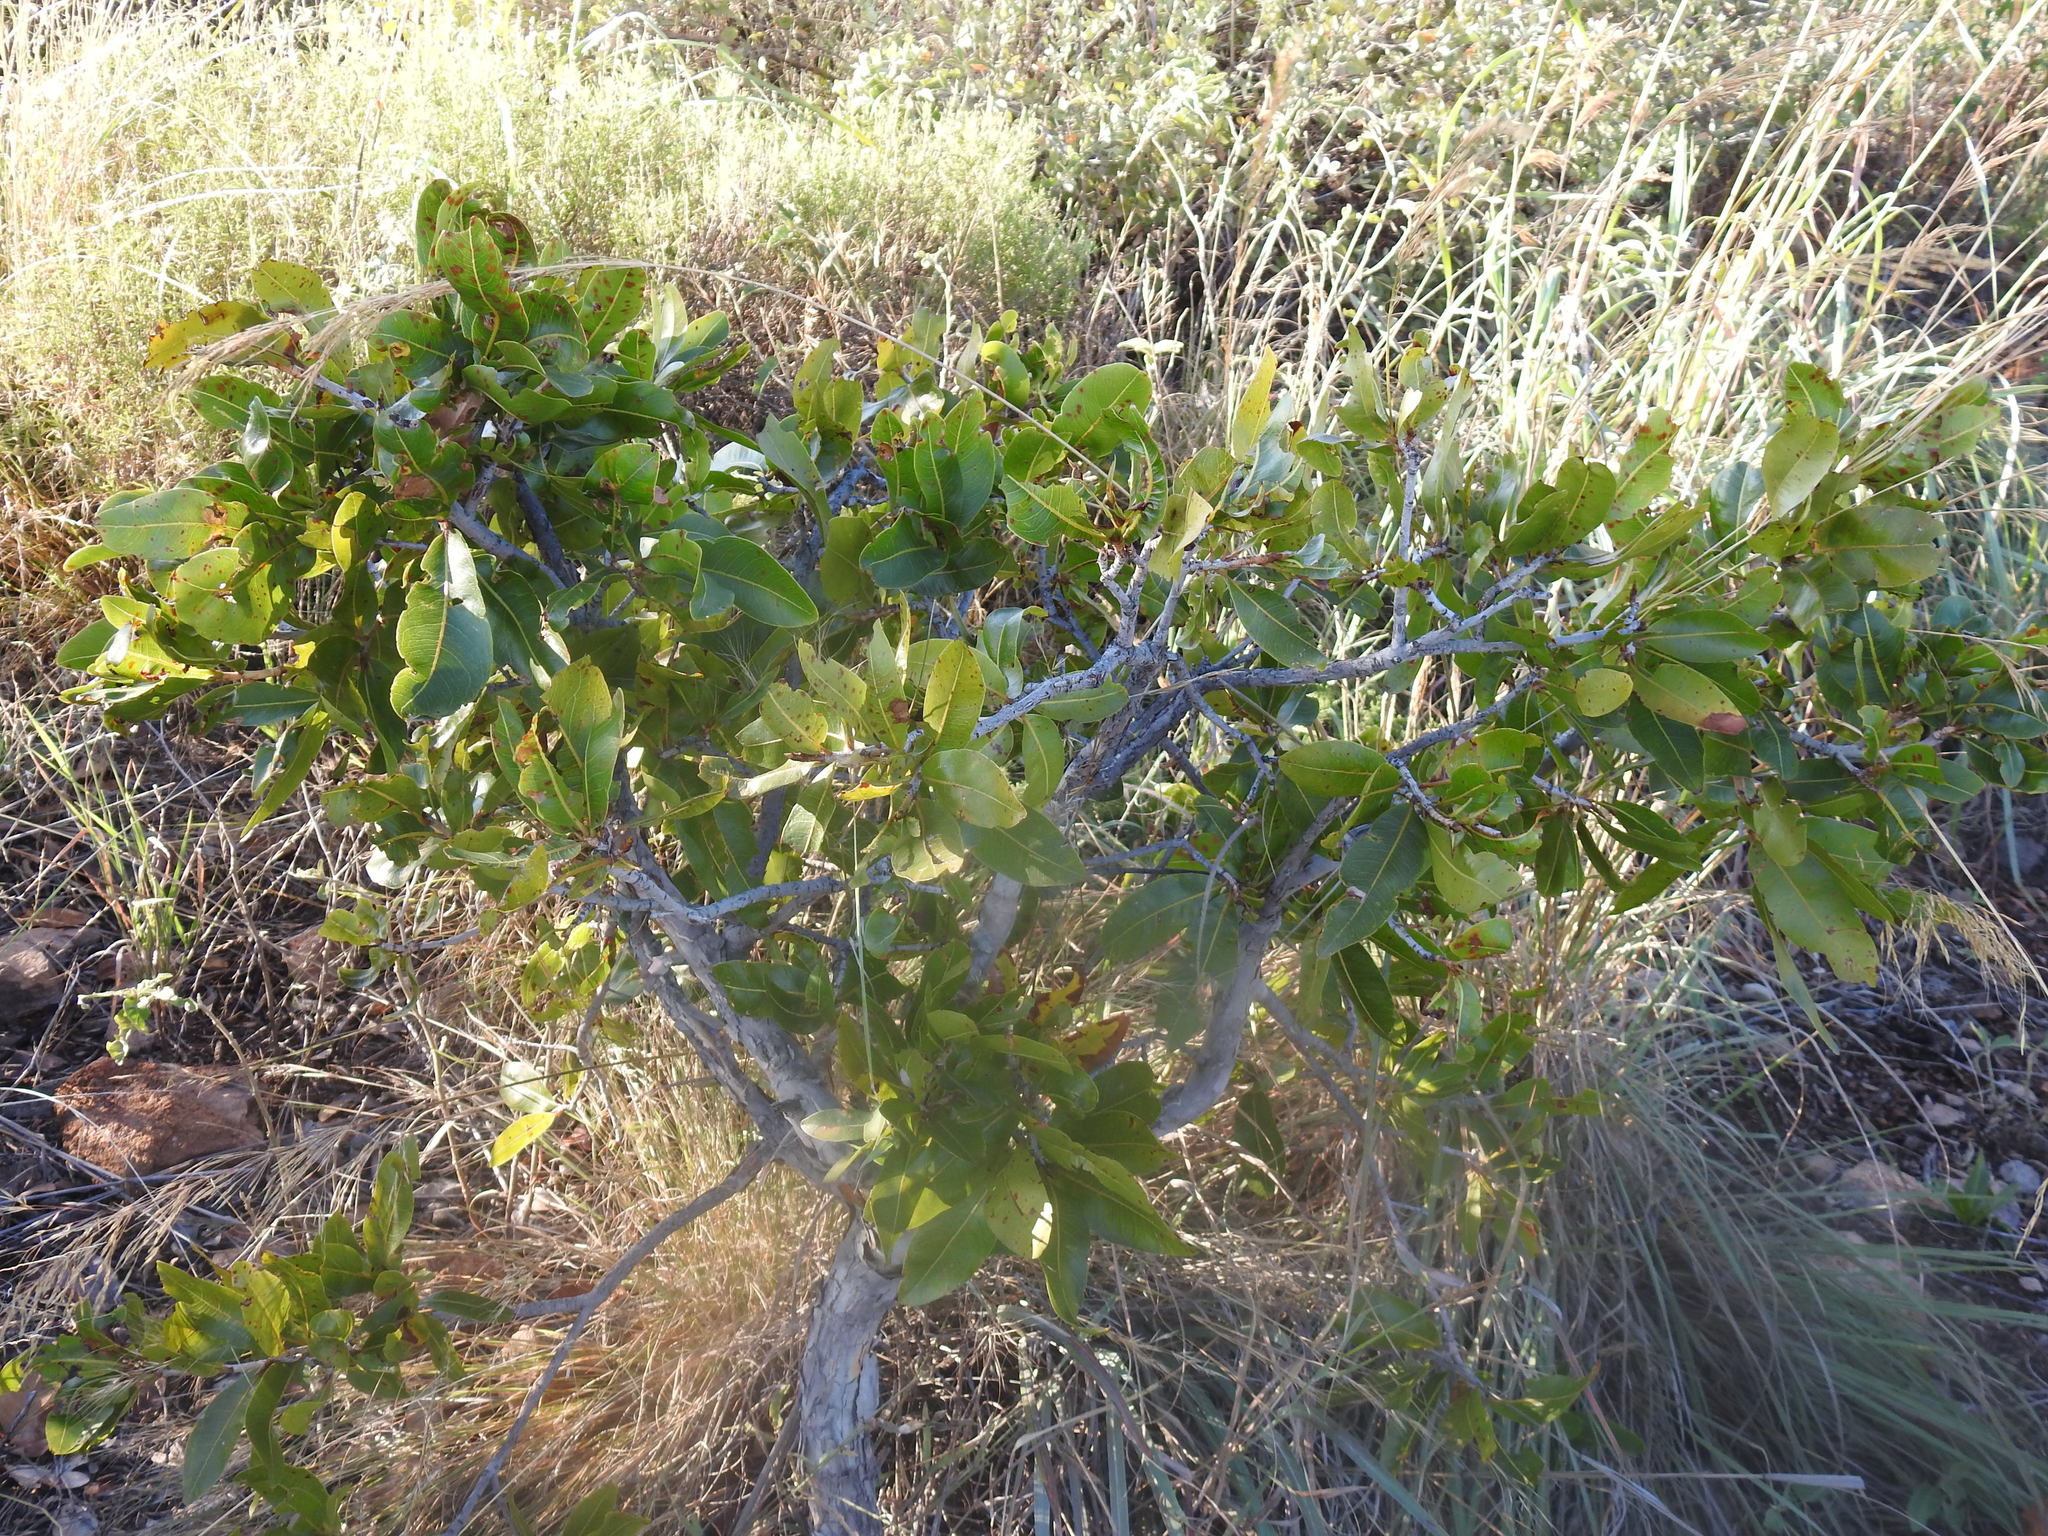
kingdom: Plantae
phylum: Tracheophyta
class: Magnoliopsida
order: Malpighiales
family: Ochnaceae
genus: Ochna
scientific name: Ochna pulchra
